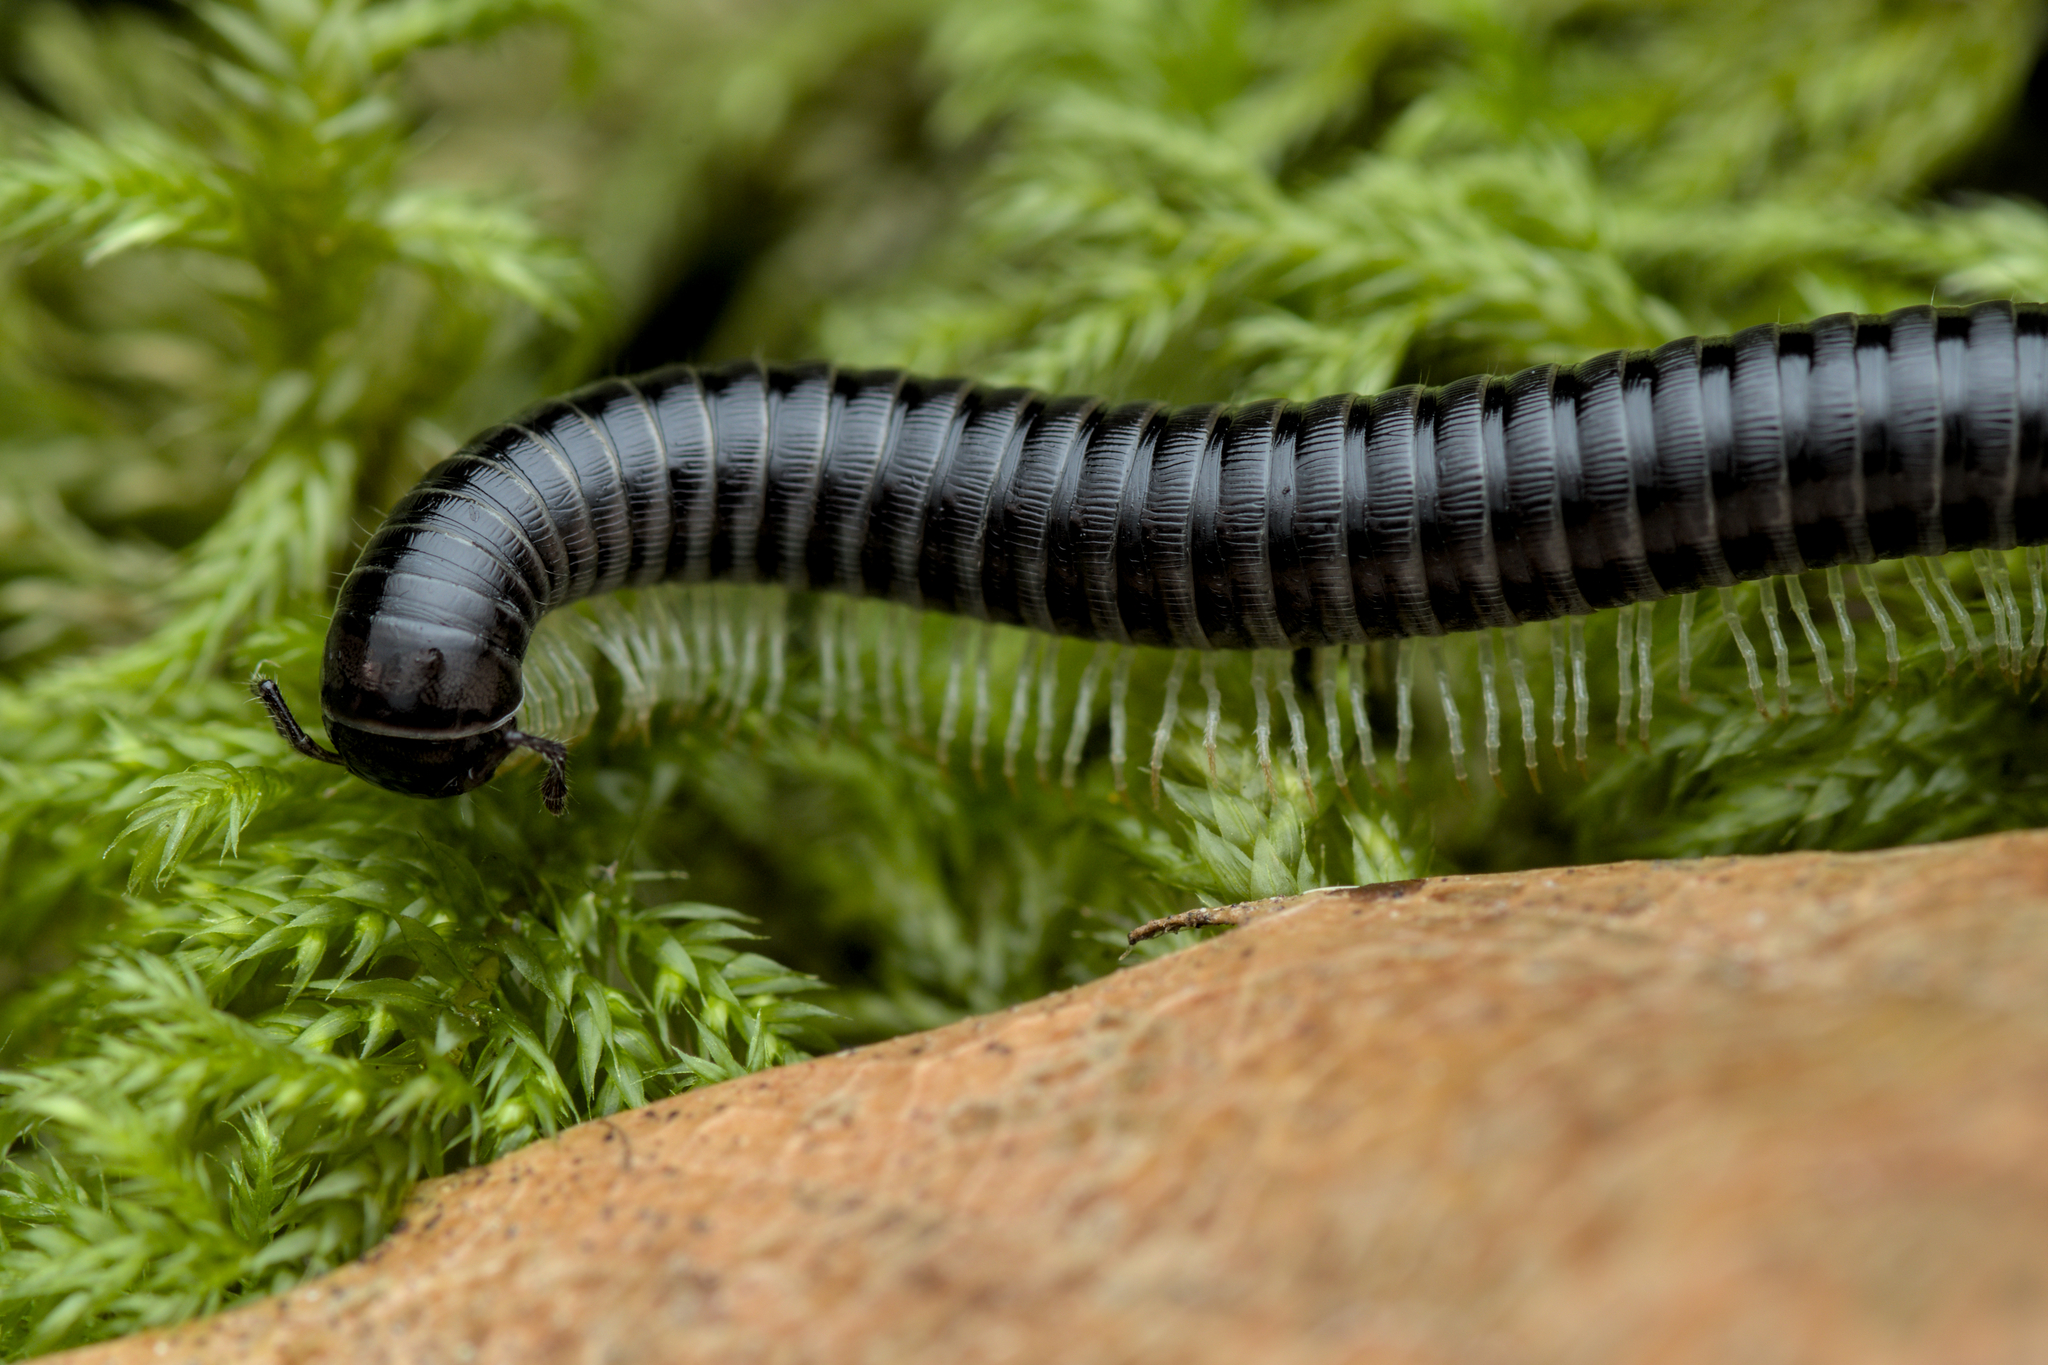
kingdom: Animalia
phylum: Arthropoda
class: Diplopoda
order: Julida
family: Julidae
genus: Tachypodoiulus
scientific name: Tachypodoiulus niger
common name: White-legged snake millipede
